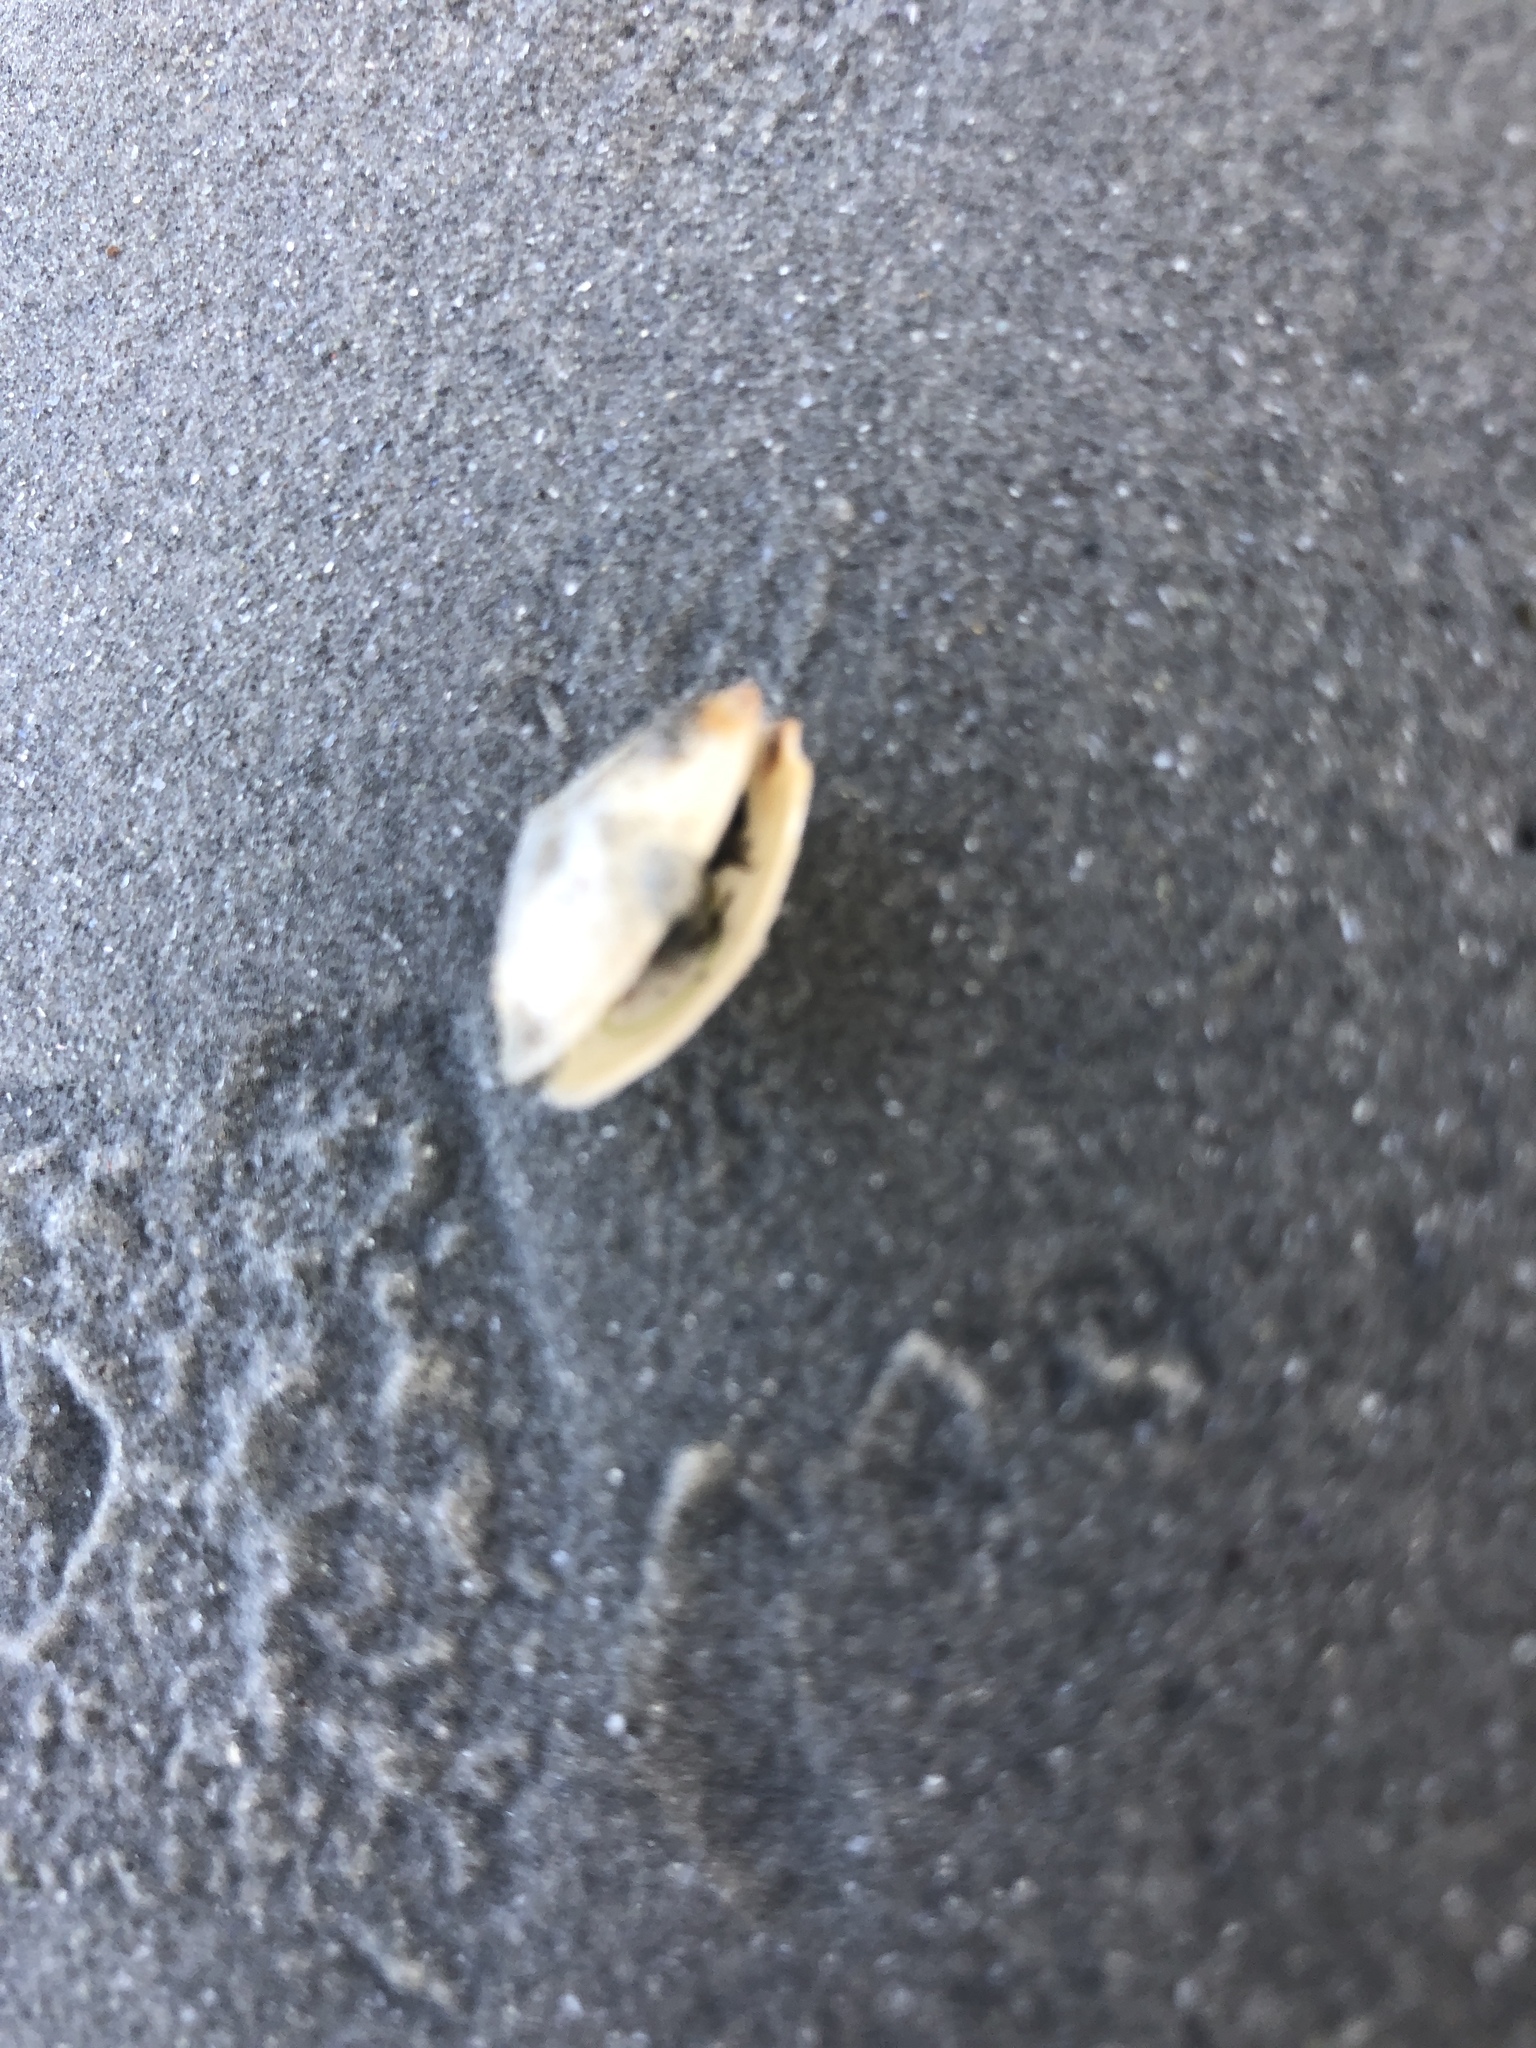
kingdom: Animalia
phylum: Mollusca
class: Bivalvia
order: Myida
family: Myidae
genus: Mya
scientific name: Mya arenaria
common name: Soft-shelled clam
